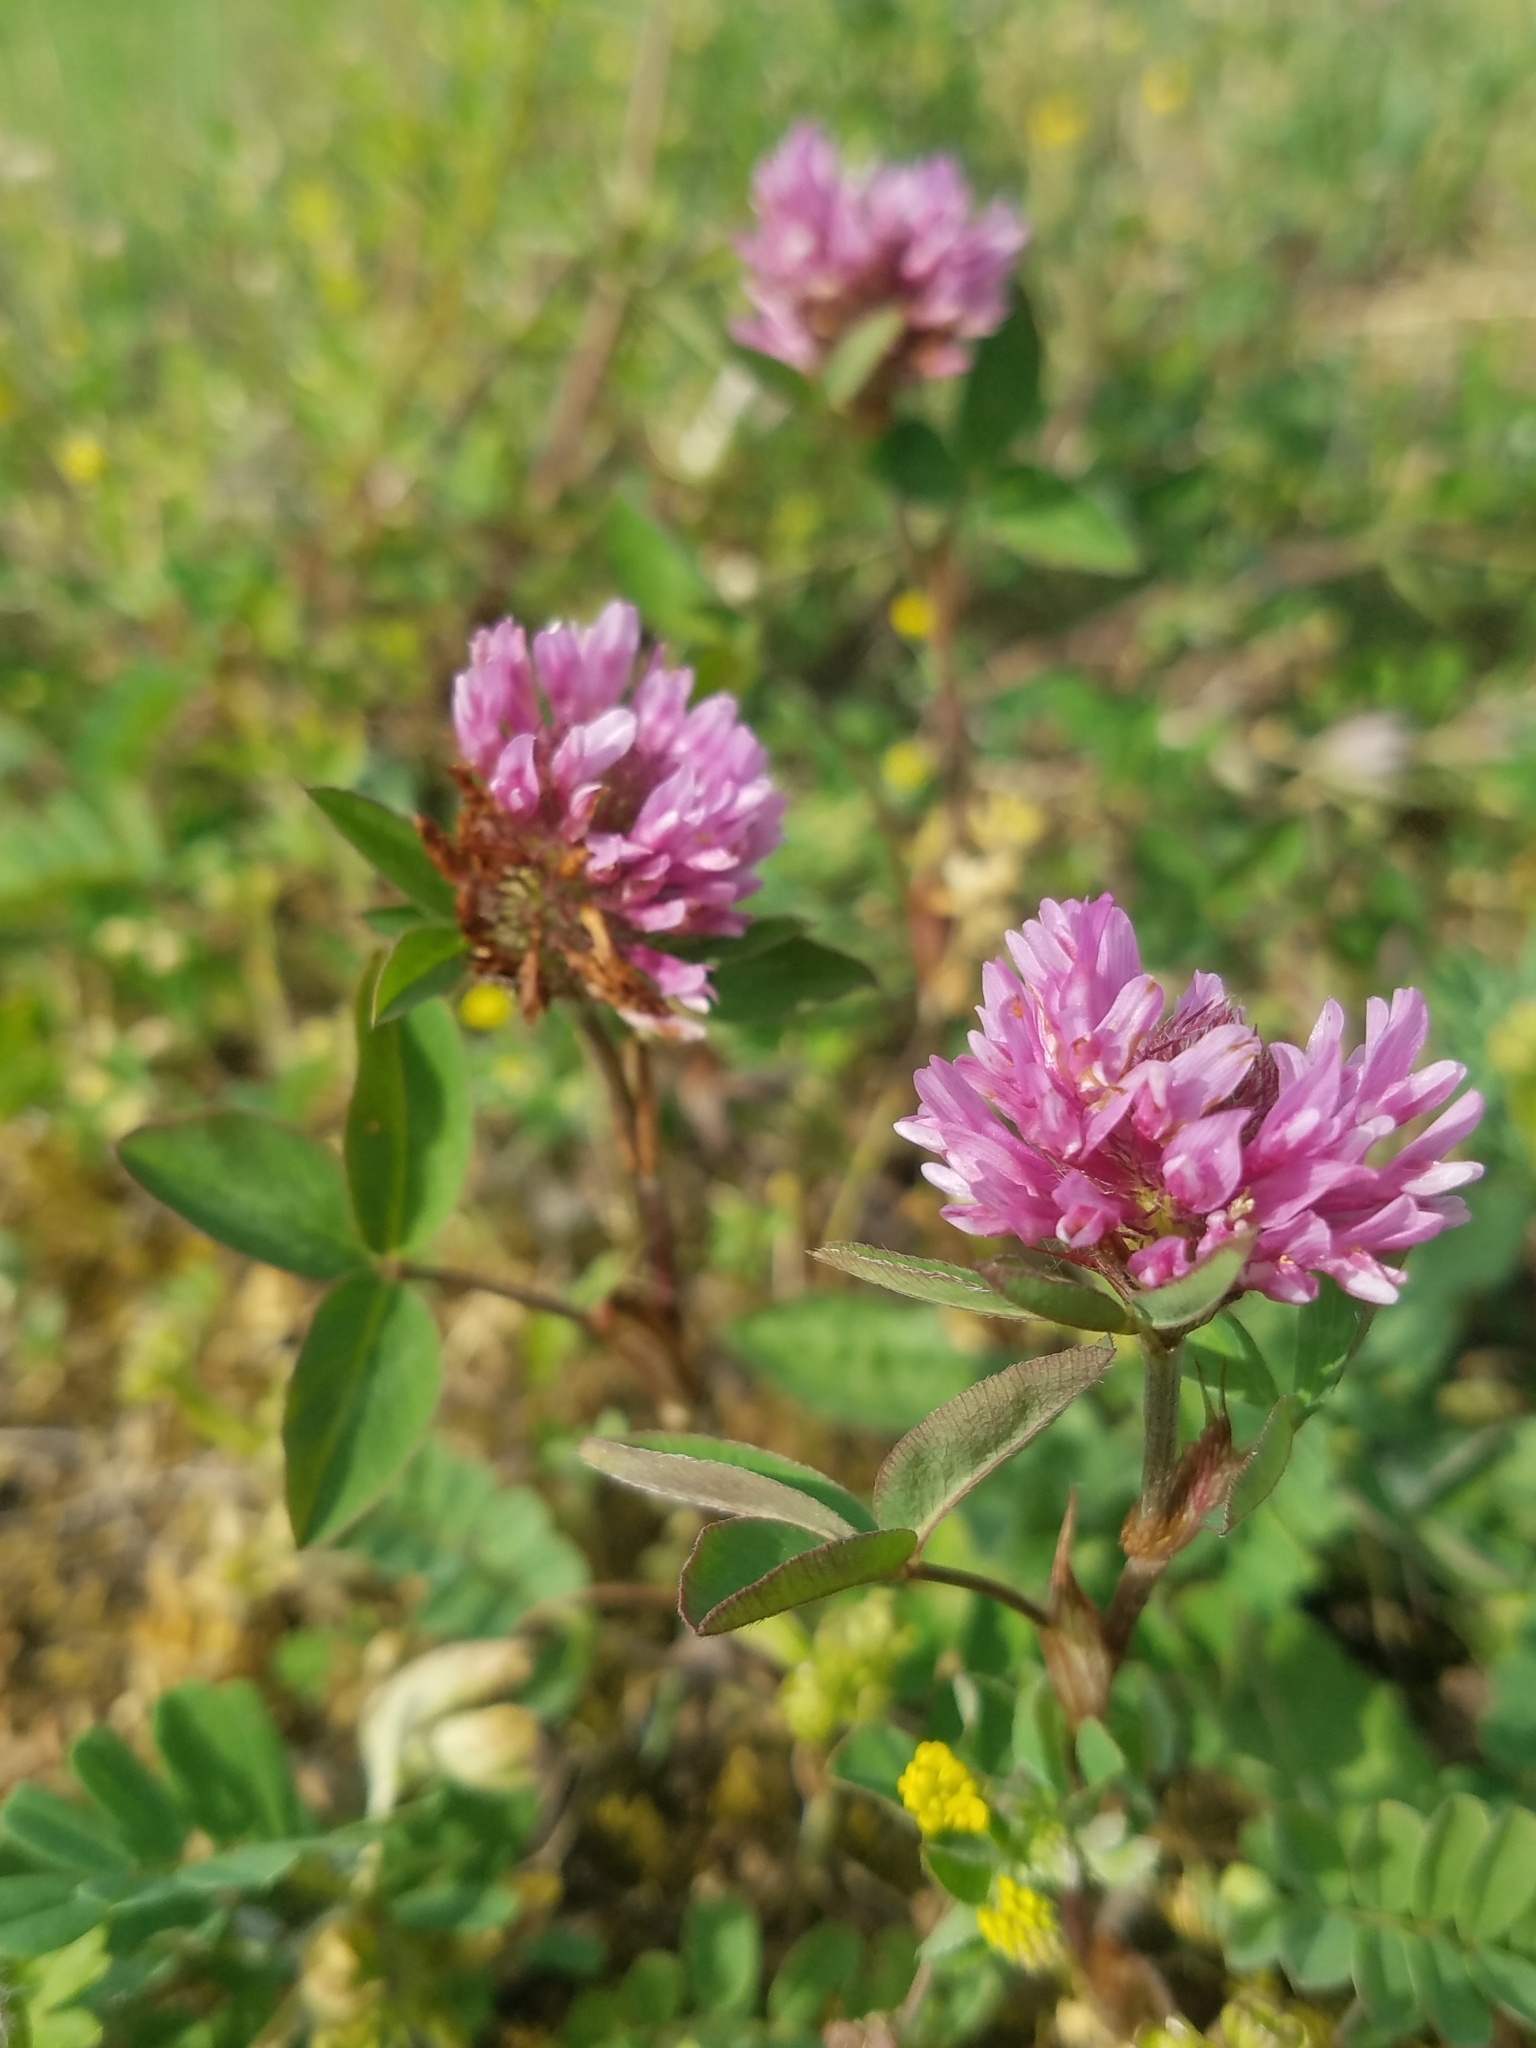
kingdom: Plantae
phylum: Tracheophyta
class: Magnoliopsida
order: Fabales
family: Fabaceae
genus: Trifolium
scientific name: Trifolium pratense
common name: Red clover
